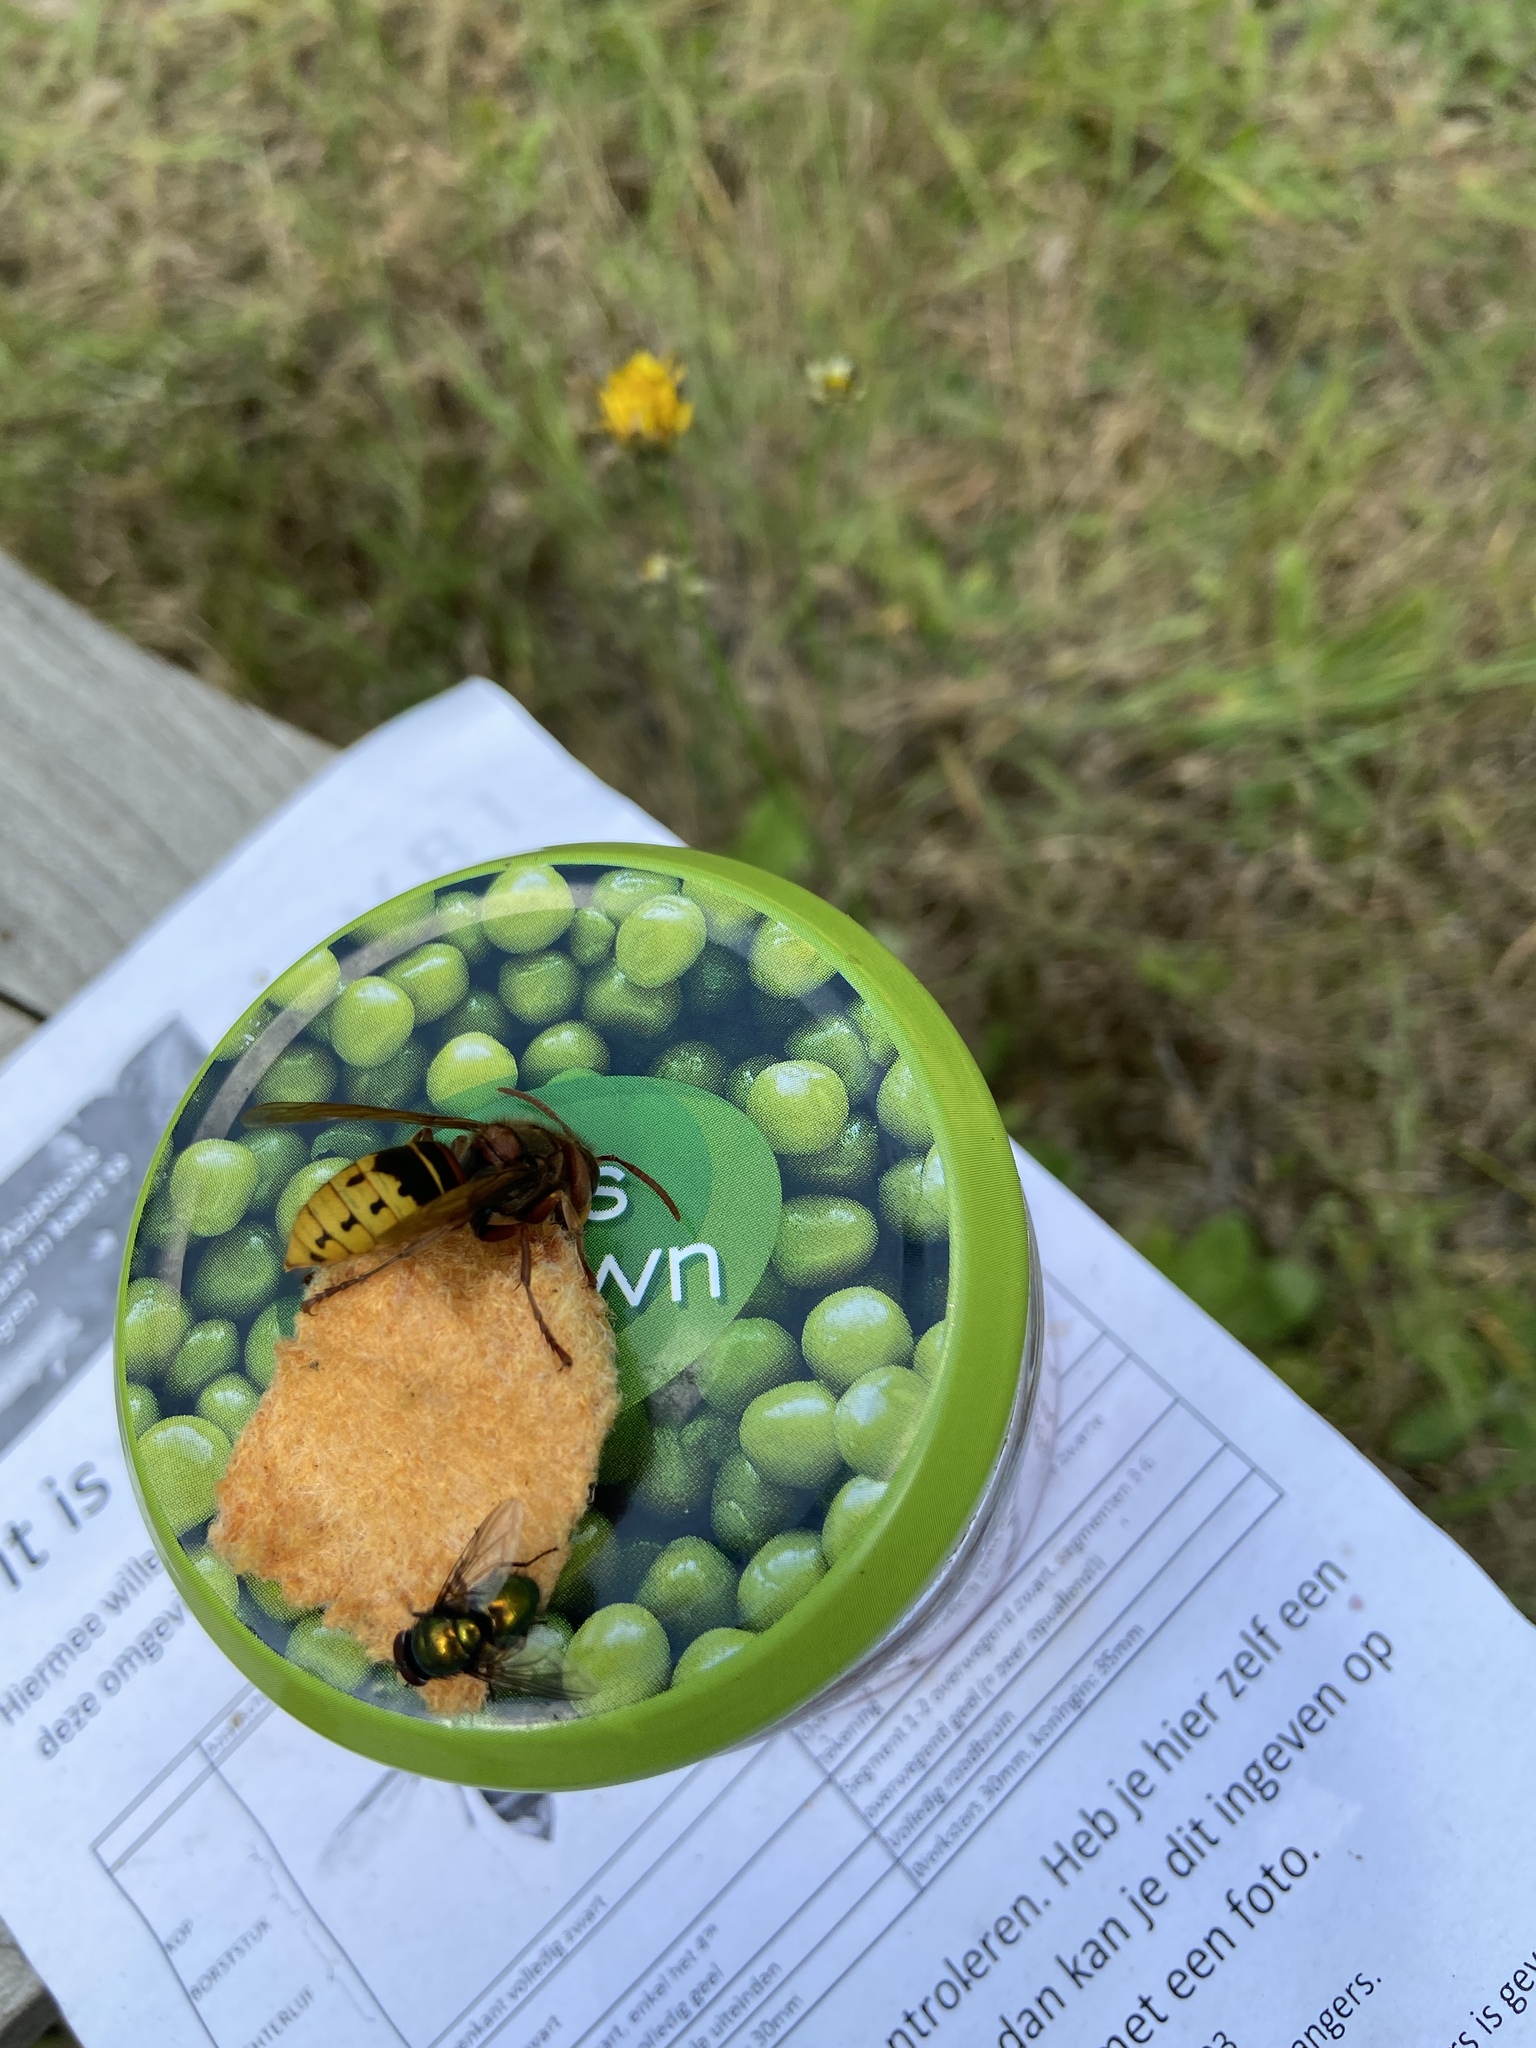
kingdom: Animalia
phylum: Arthropoda
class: Insecta
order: Hymenoptera
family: Vespidae
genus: Vespa
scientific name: Vespa crabro
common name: Hornet
